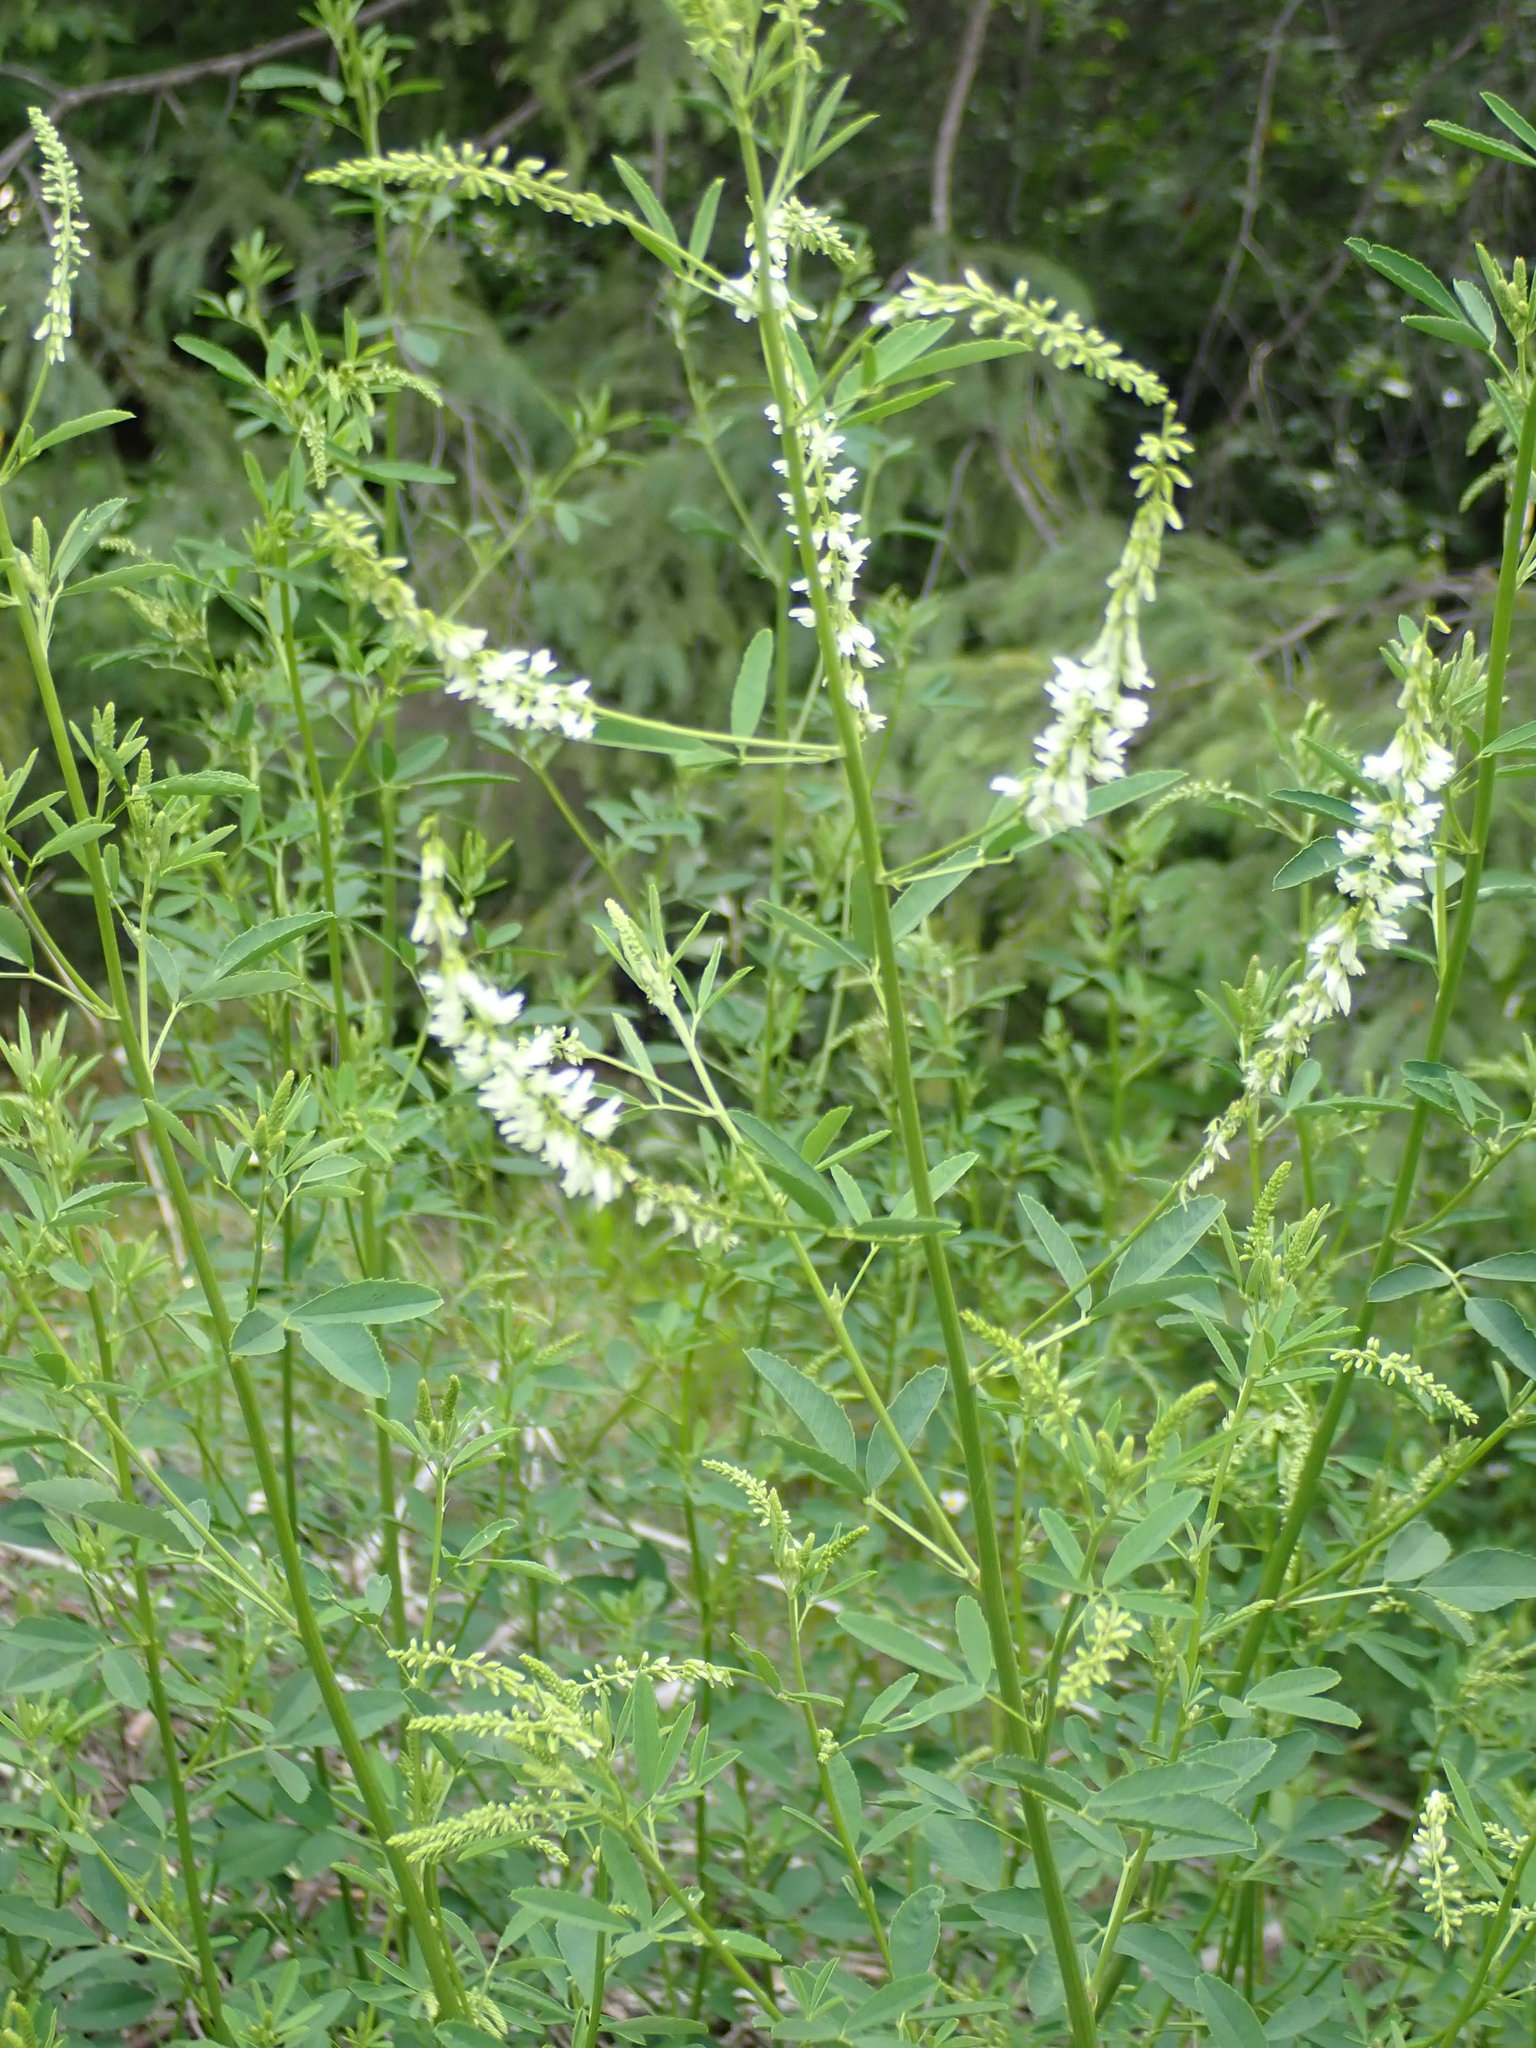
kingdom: Plantae
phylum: Tracheophyta
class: Magnoliopsida
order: Fabales
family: Fabaceae
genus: Melilotus
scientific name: Melilotus albus
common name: White melilot
